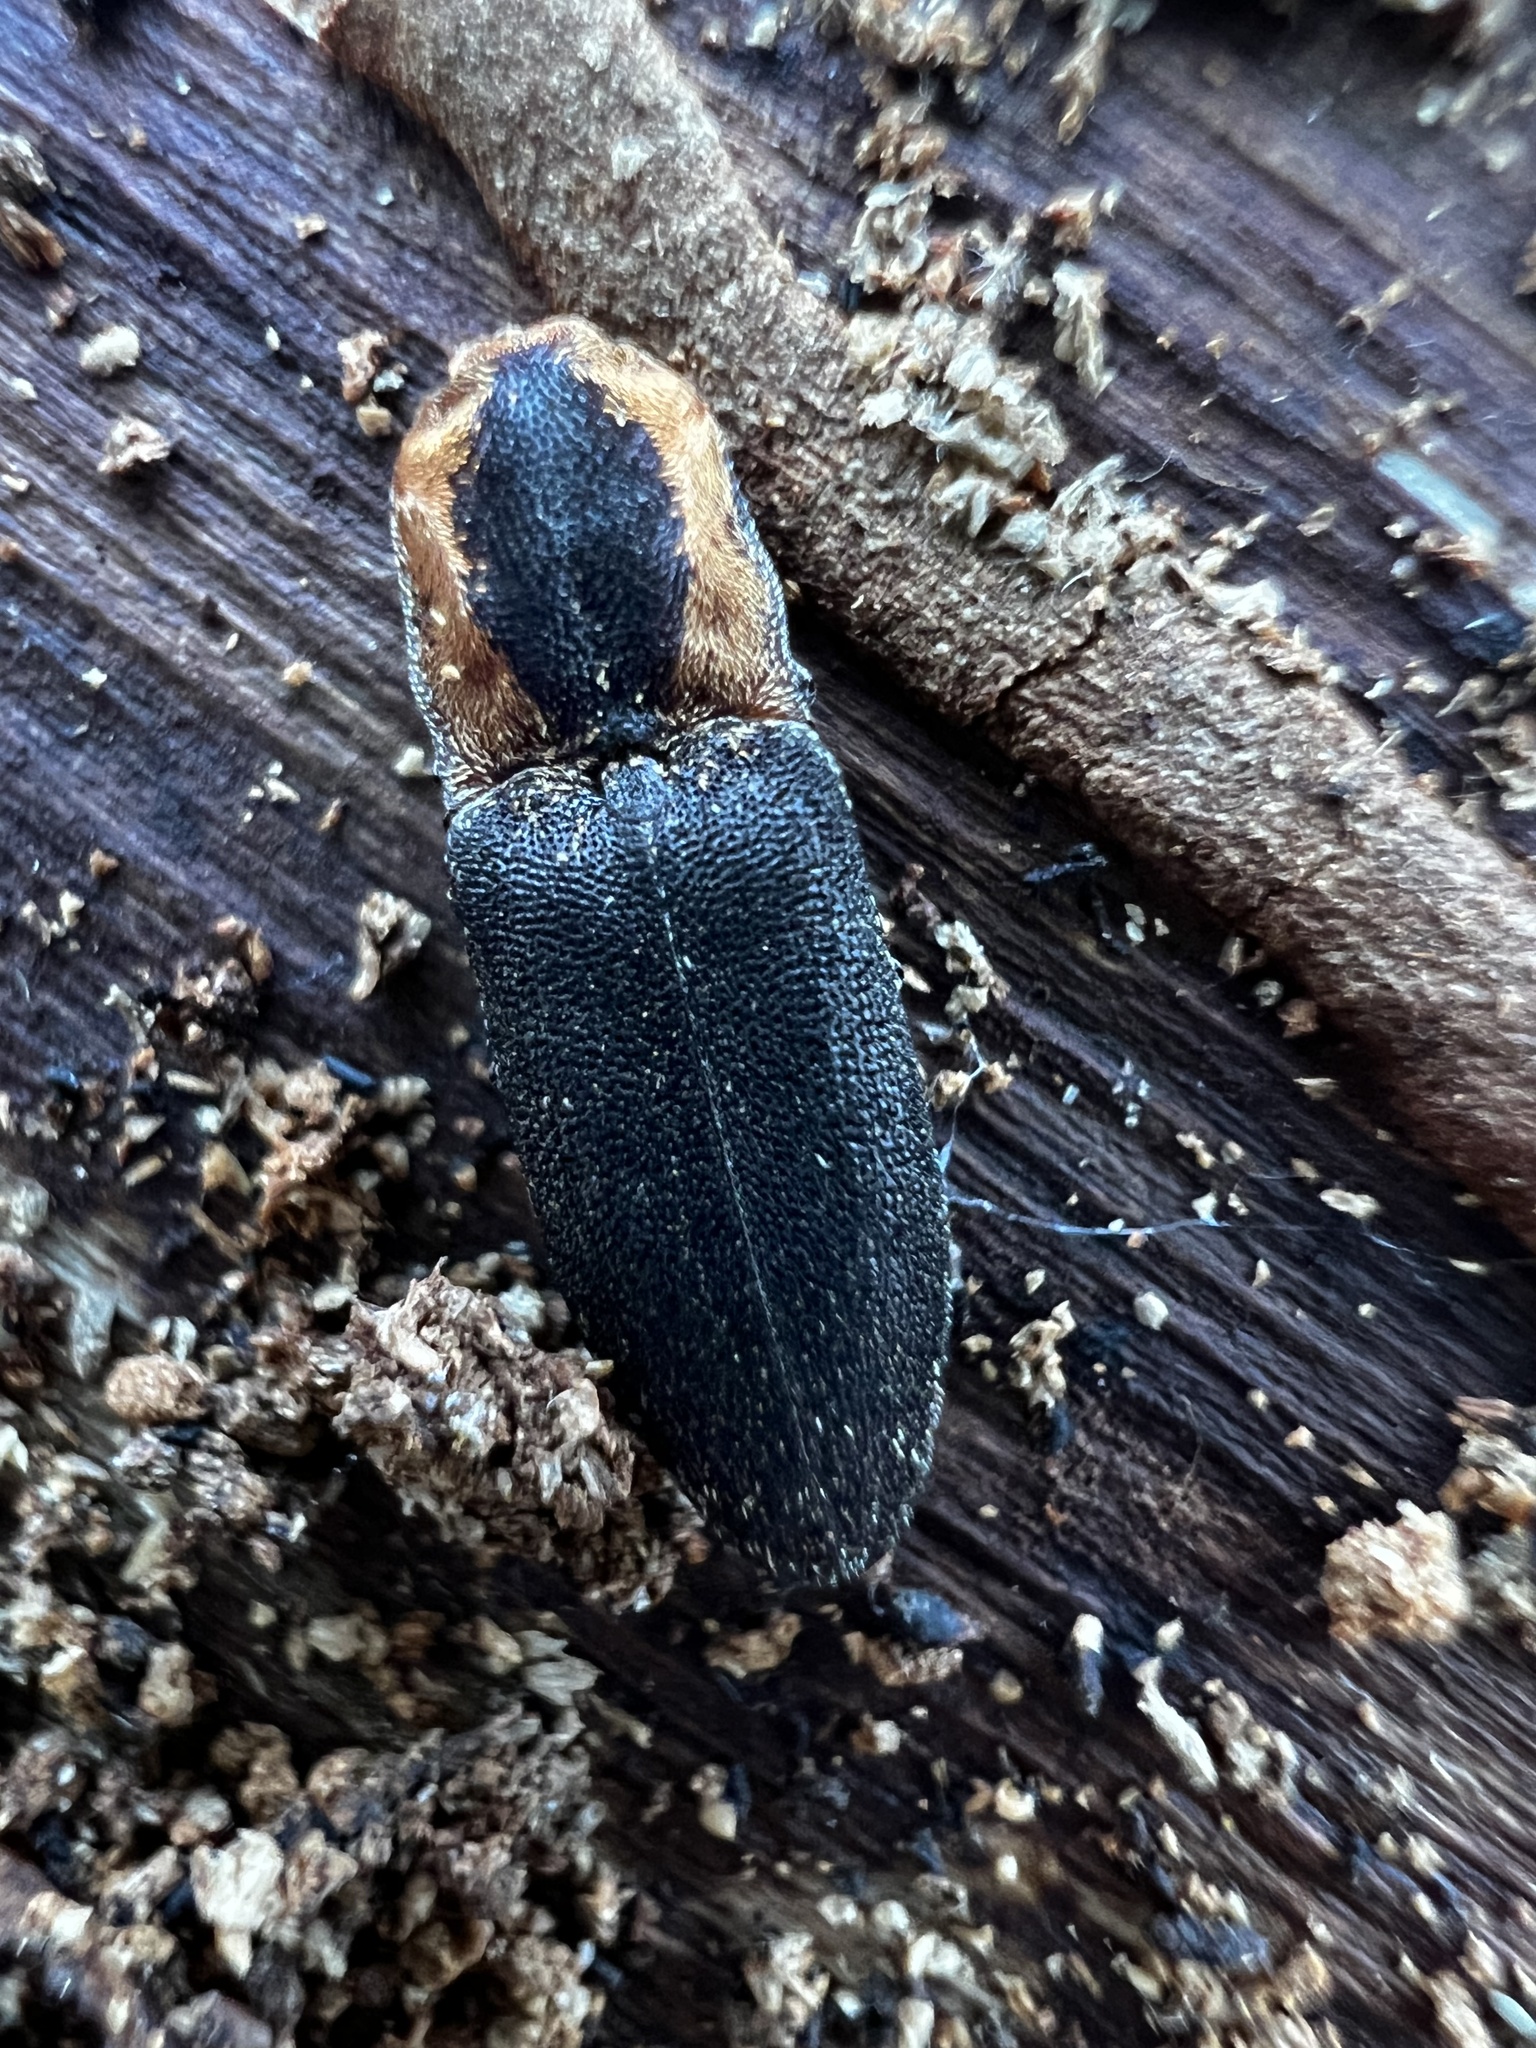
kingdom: Animalia
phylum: Arthropoda
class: Insecta
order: Coleoptera
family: Elateridae
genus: Lacon
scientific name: Lacon discoideus
